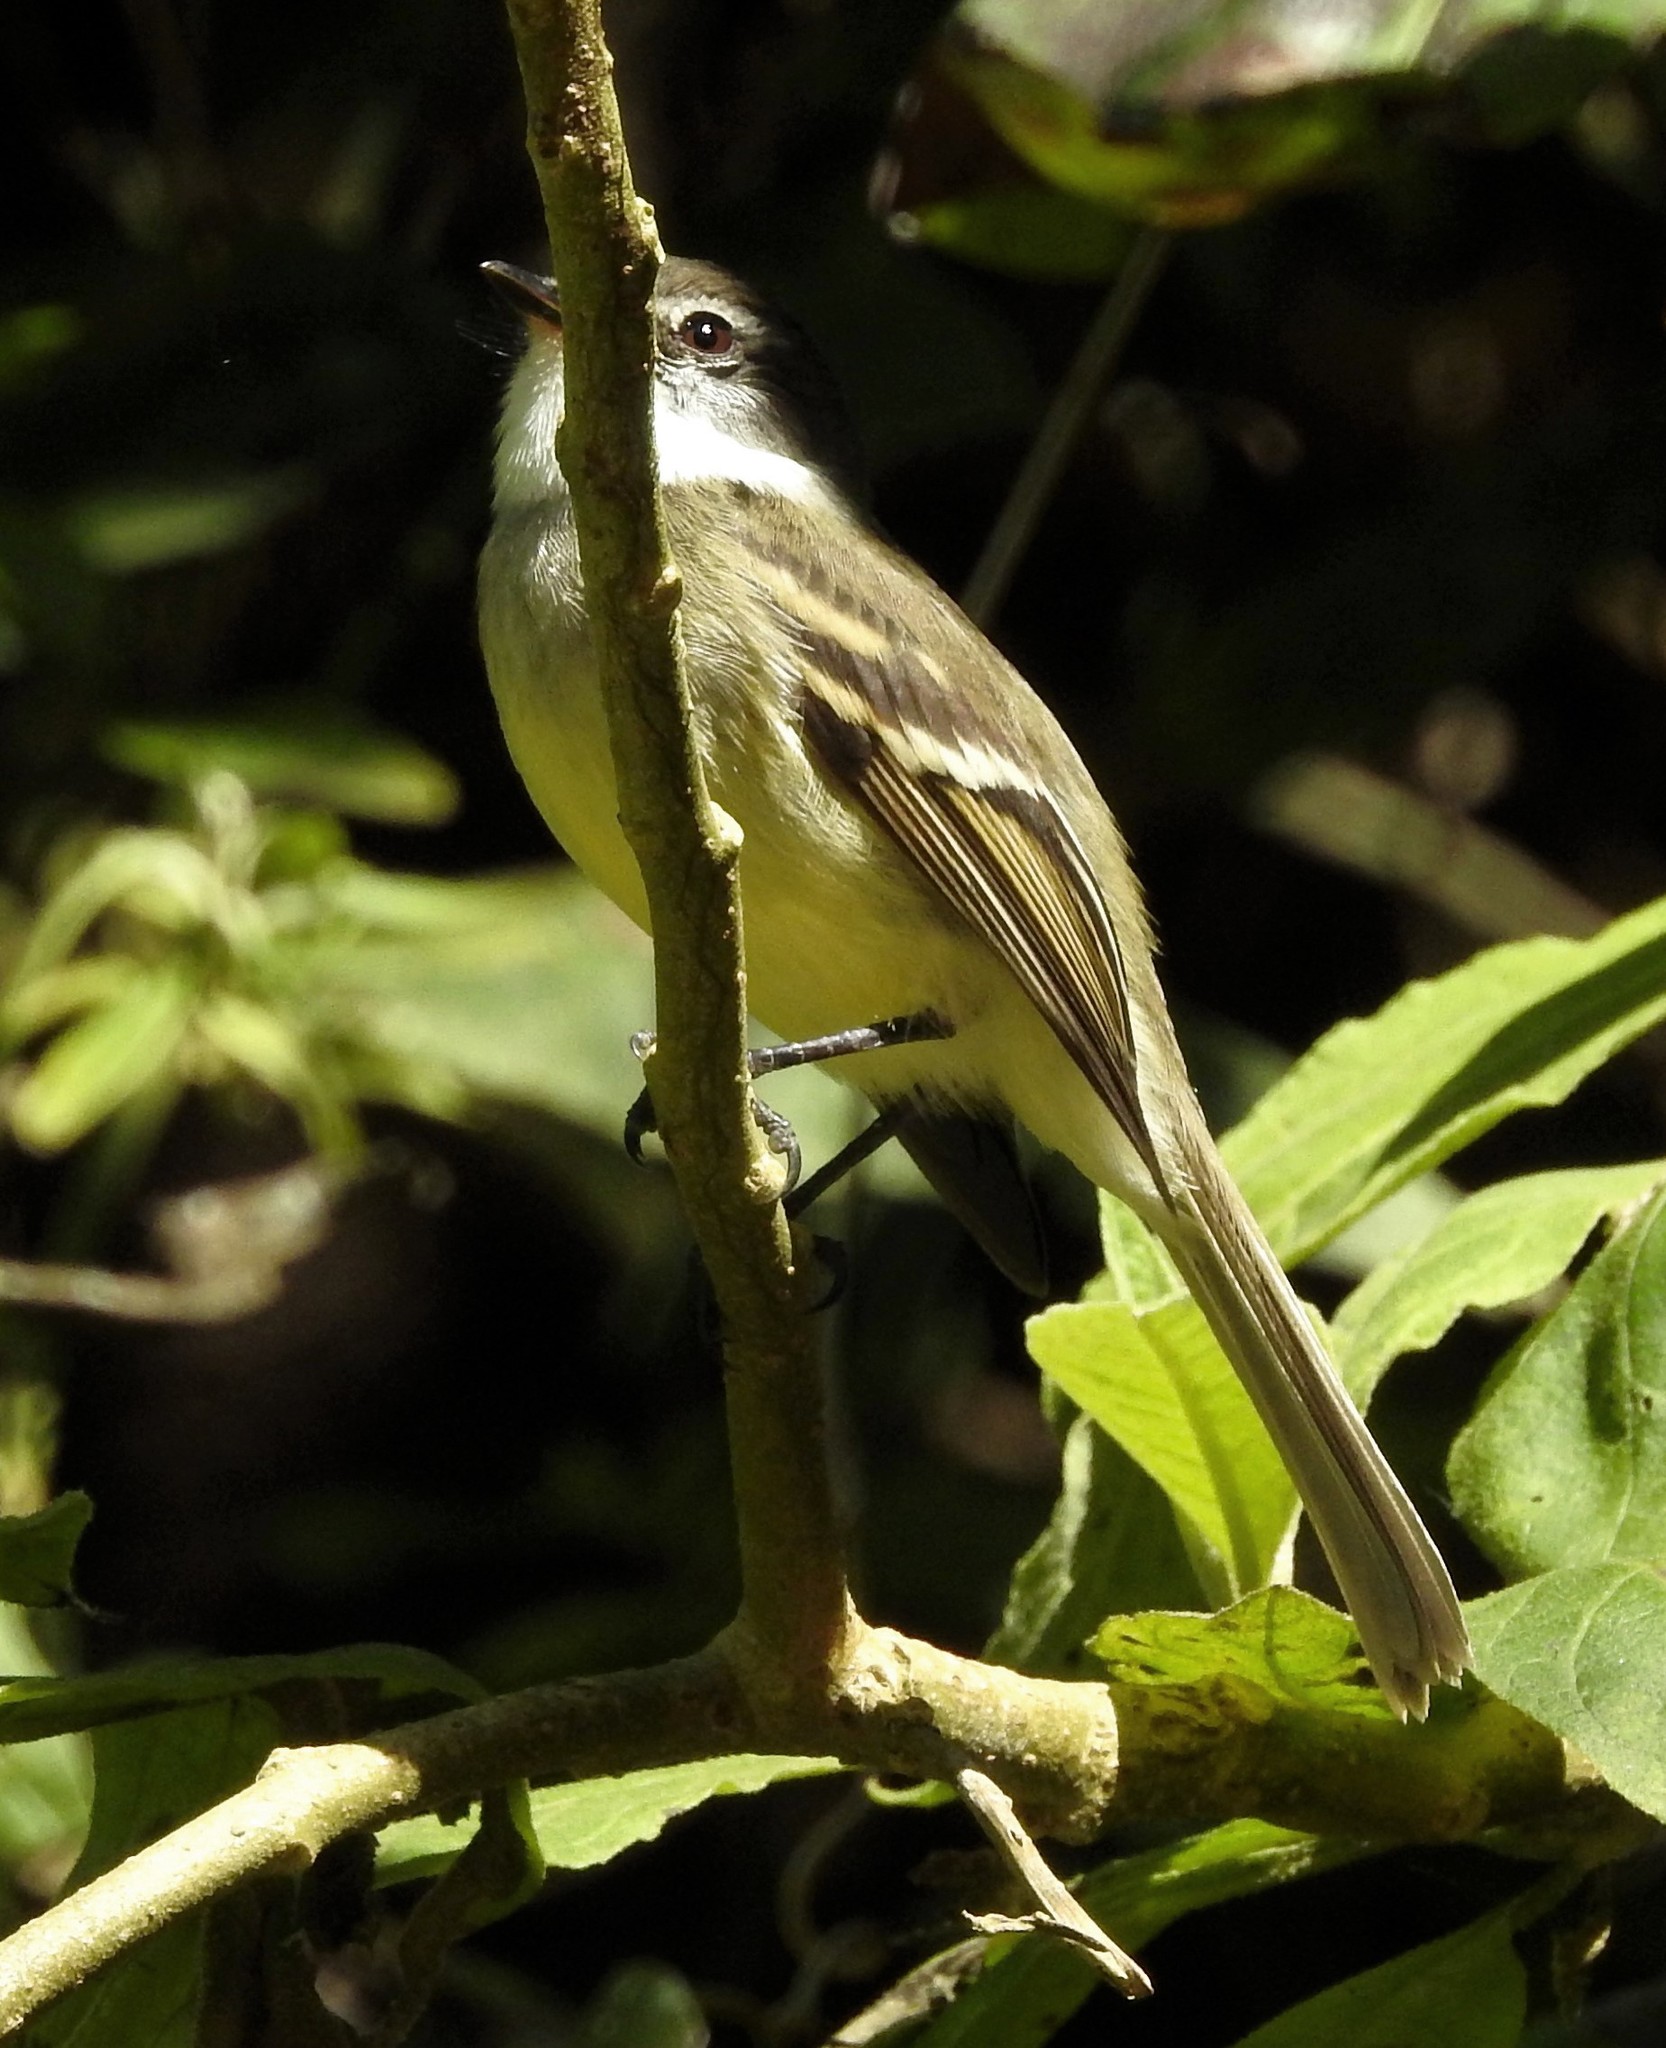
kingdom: Animalia
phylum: Chordata
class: Aves
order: Passeriformes
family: Tyrannidae
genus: Mecocerculus
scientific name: Mecocerculus leucophrys
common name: White-throated tyrannulet
